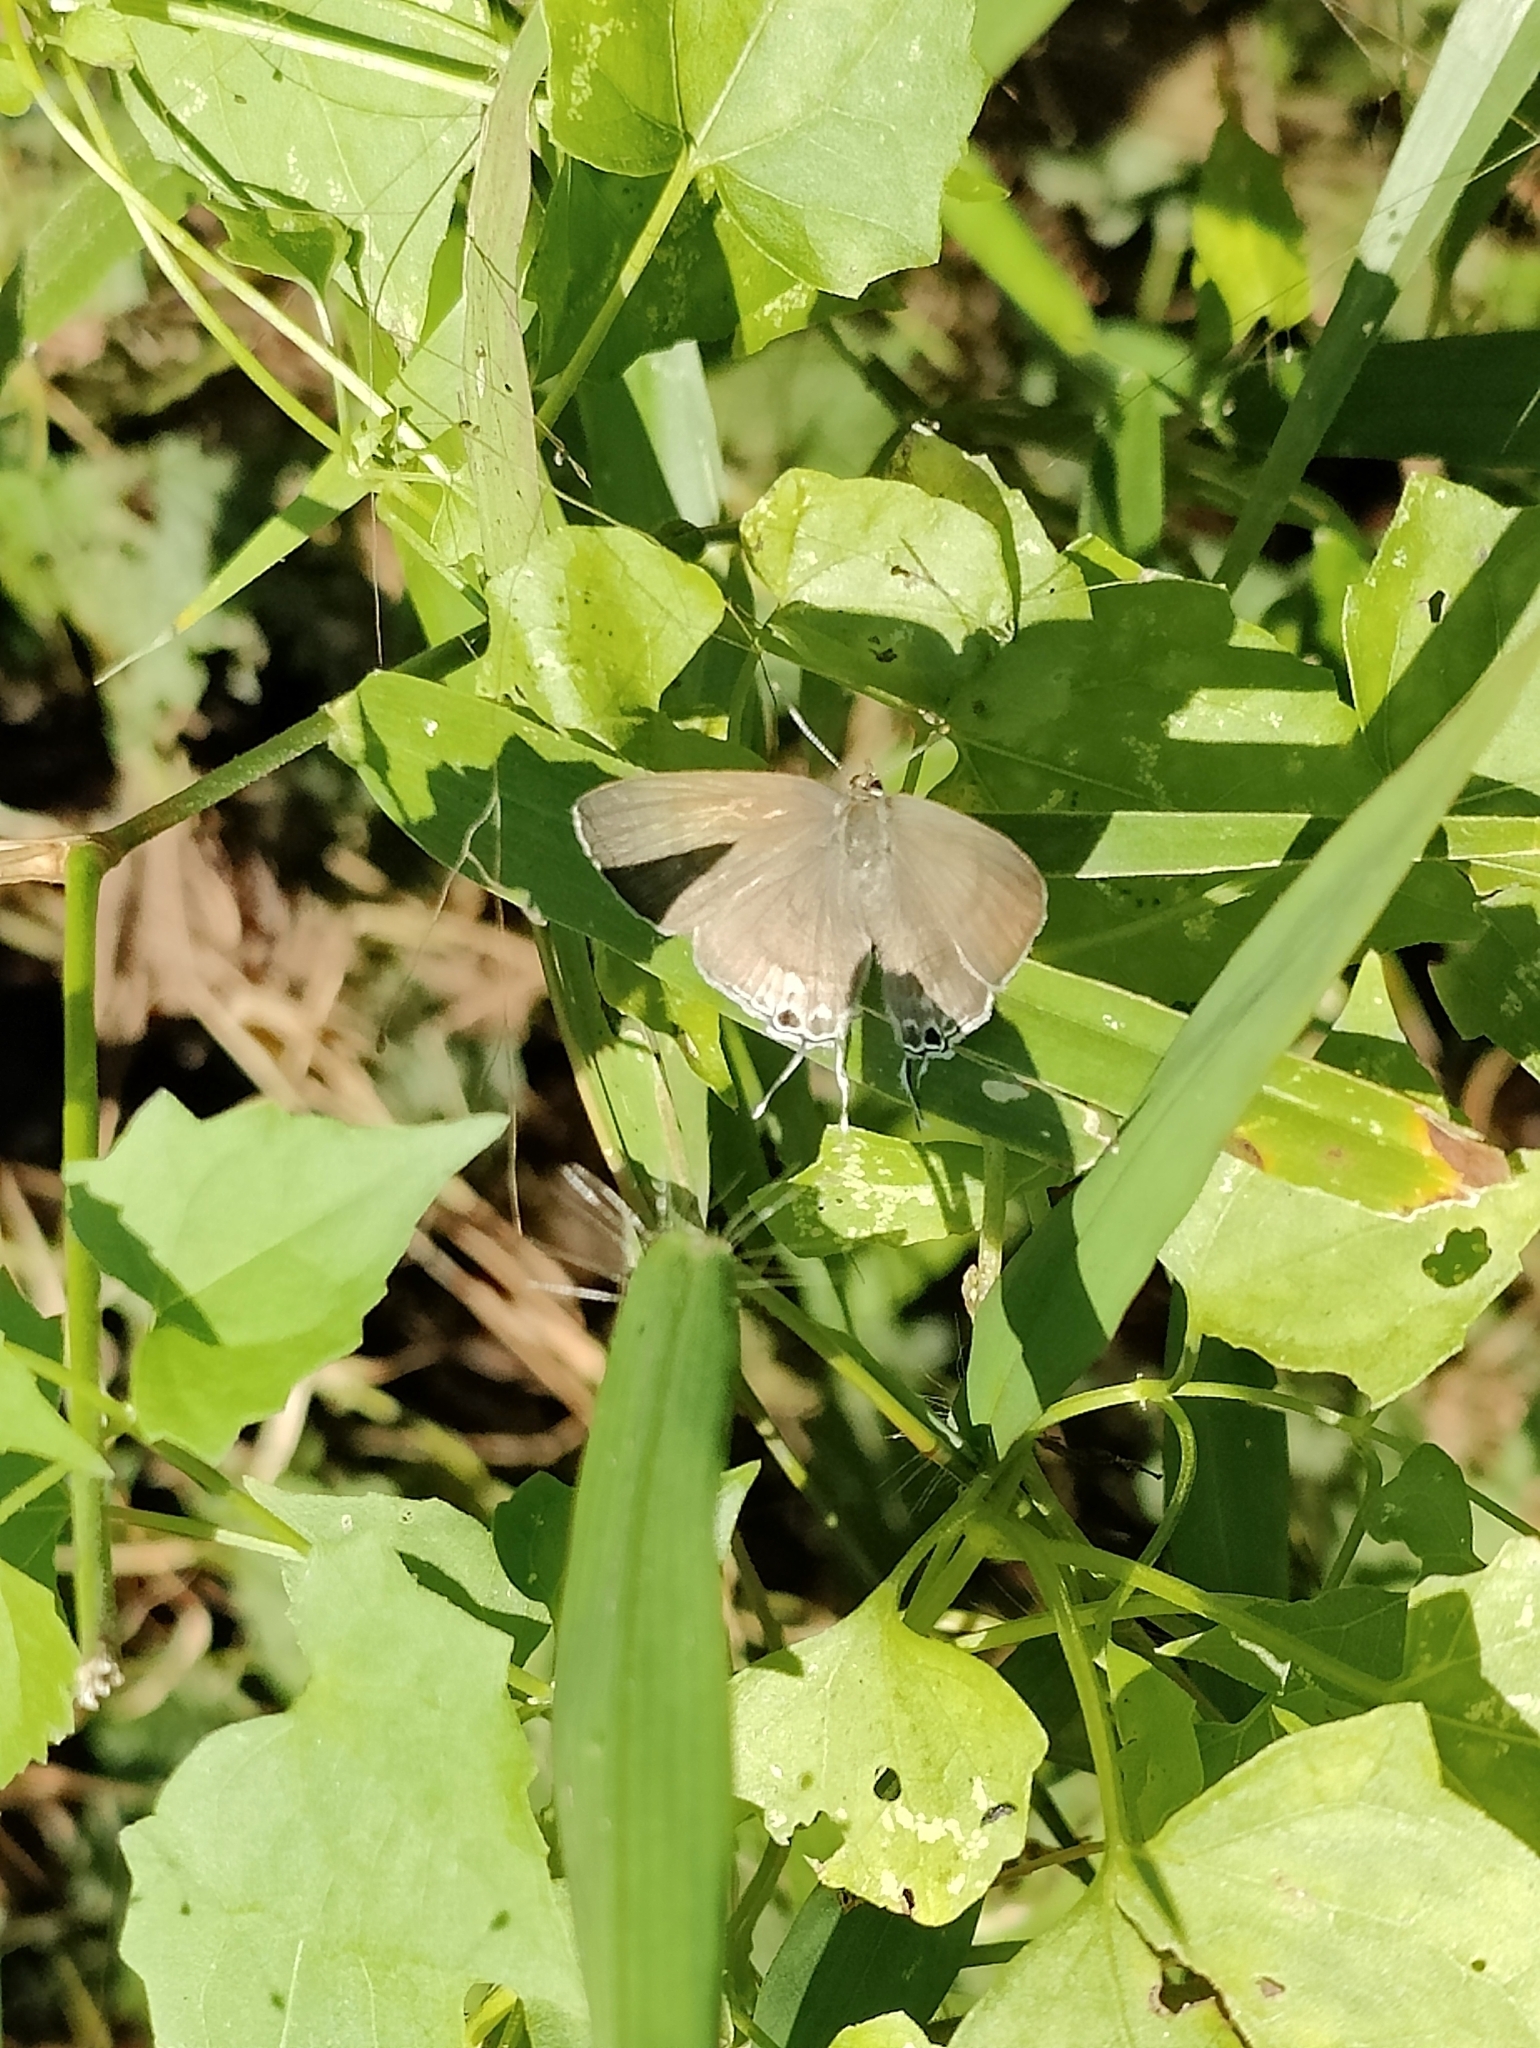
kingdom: Animalia
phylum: Arthropoda
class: Insecta
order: Lepidoptera
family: Lycaenidae
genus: Hypolycaena
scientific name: Hypolycaena erylus
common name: Common tit
